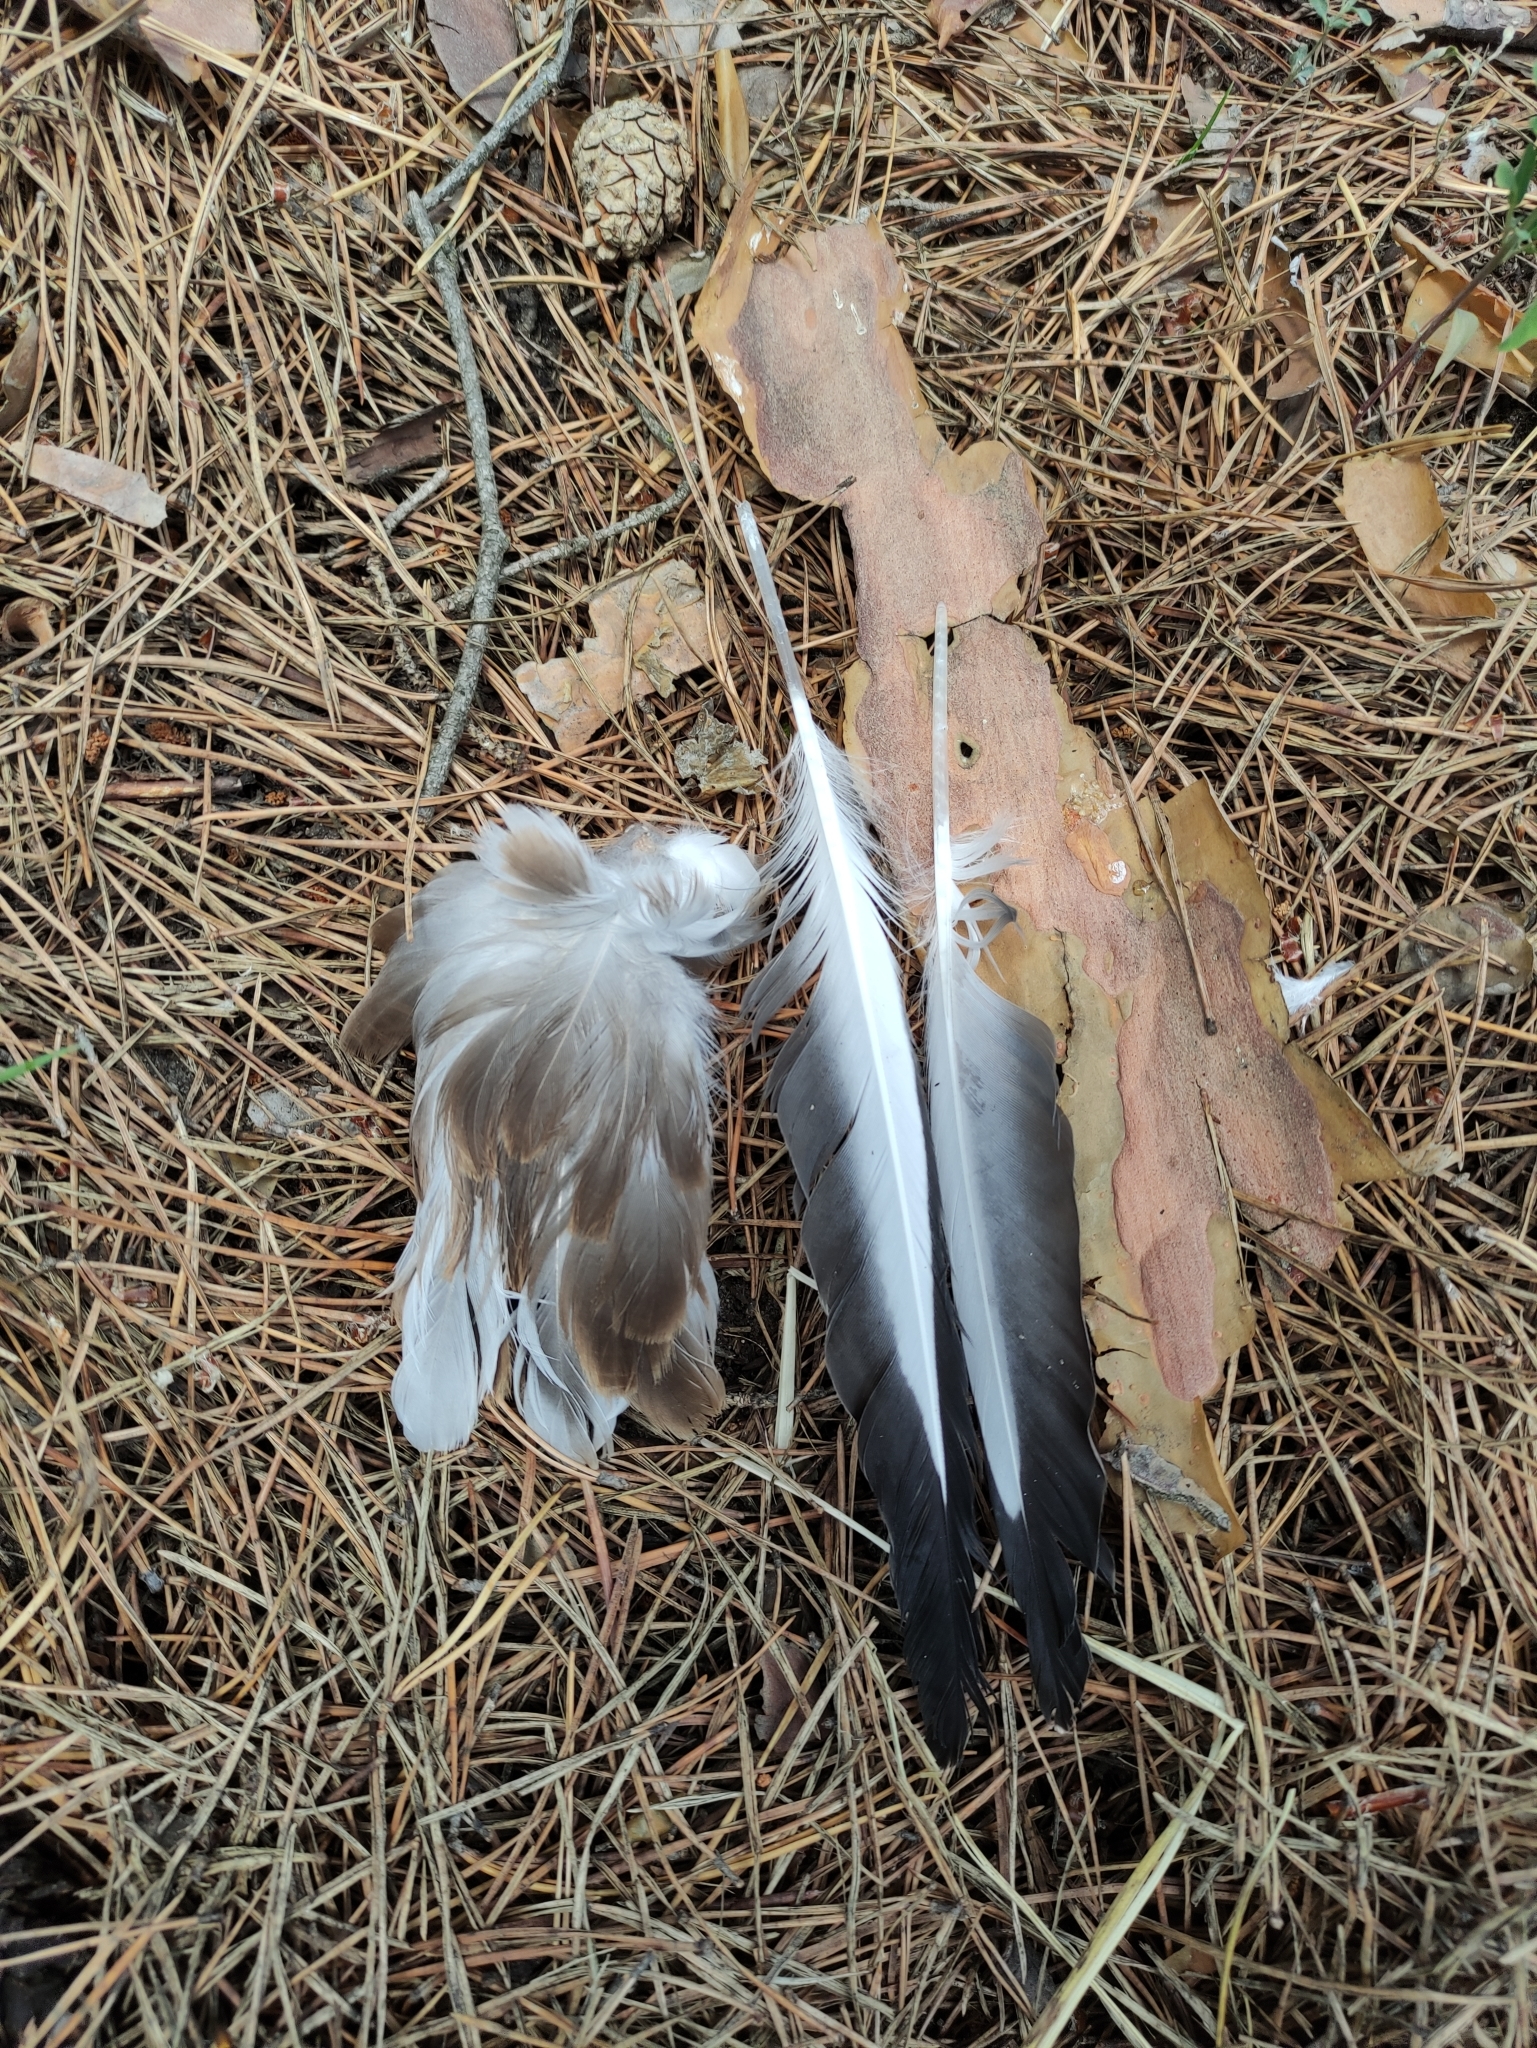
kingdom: Animalia
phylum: Chordata
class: Aves
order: Charadriiformes
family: Laridae
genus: Chroicocephalus
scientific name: Chroicocephalus ridibundus
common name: Black-headed gull
